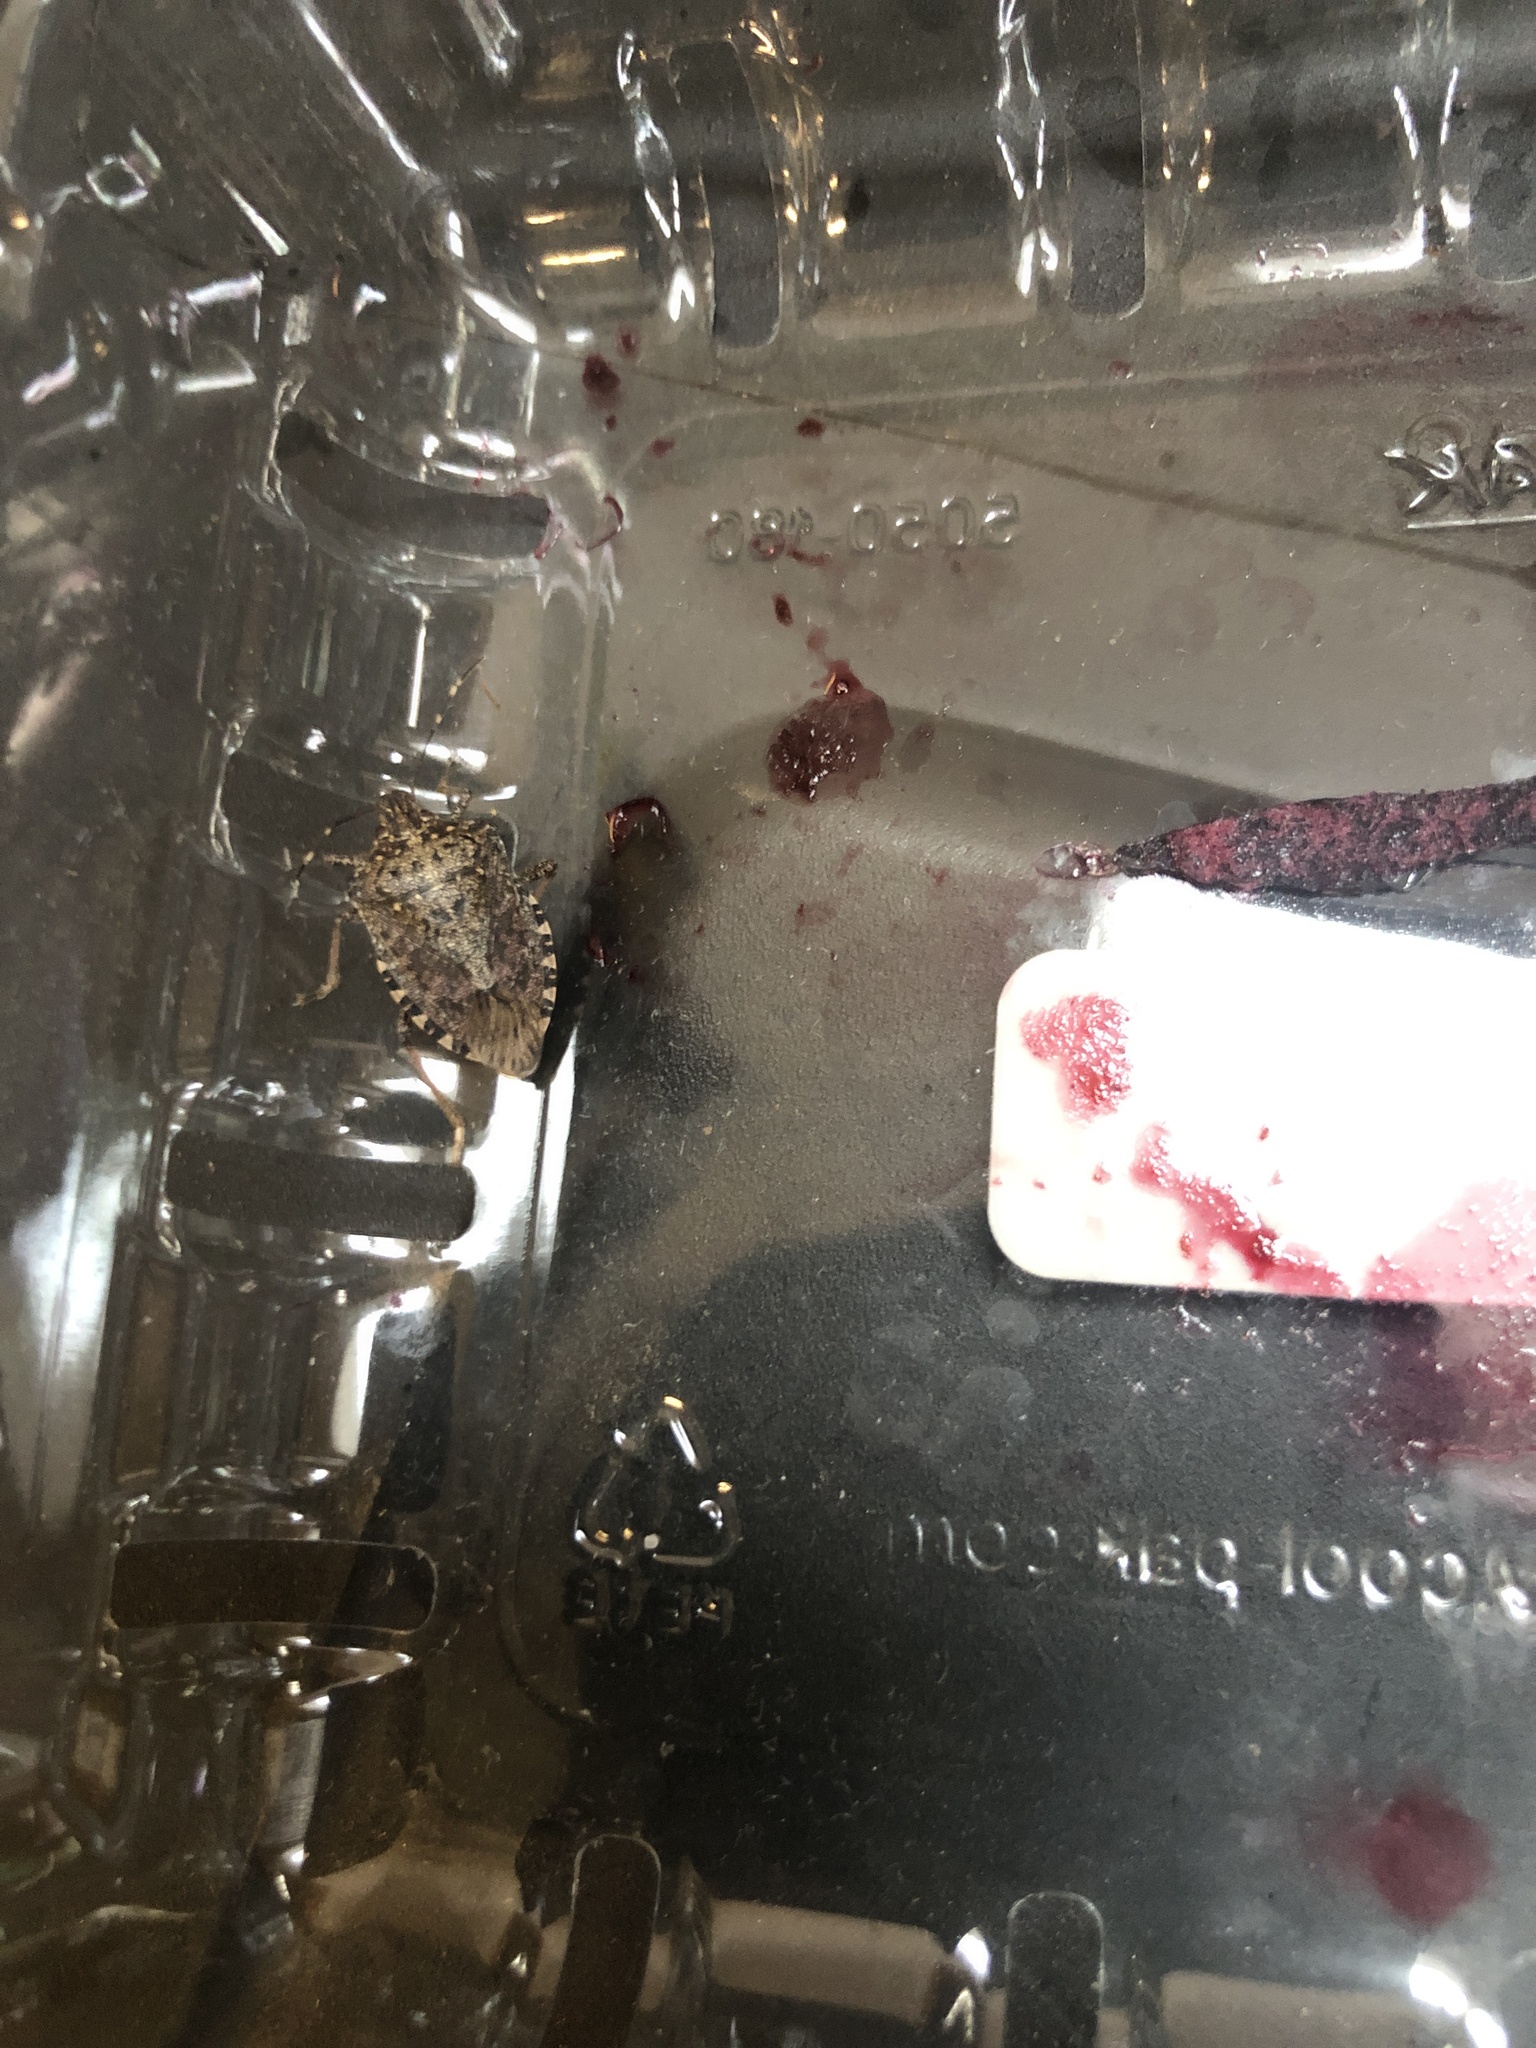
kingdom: Animalia
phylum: Arthropoda
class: Insecta
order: Hemiptera
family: Pentatomidae
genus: Halyomorpha
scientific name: Halyomorpha halys
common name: Brown marmorated stink bug
